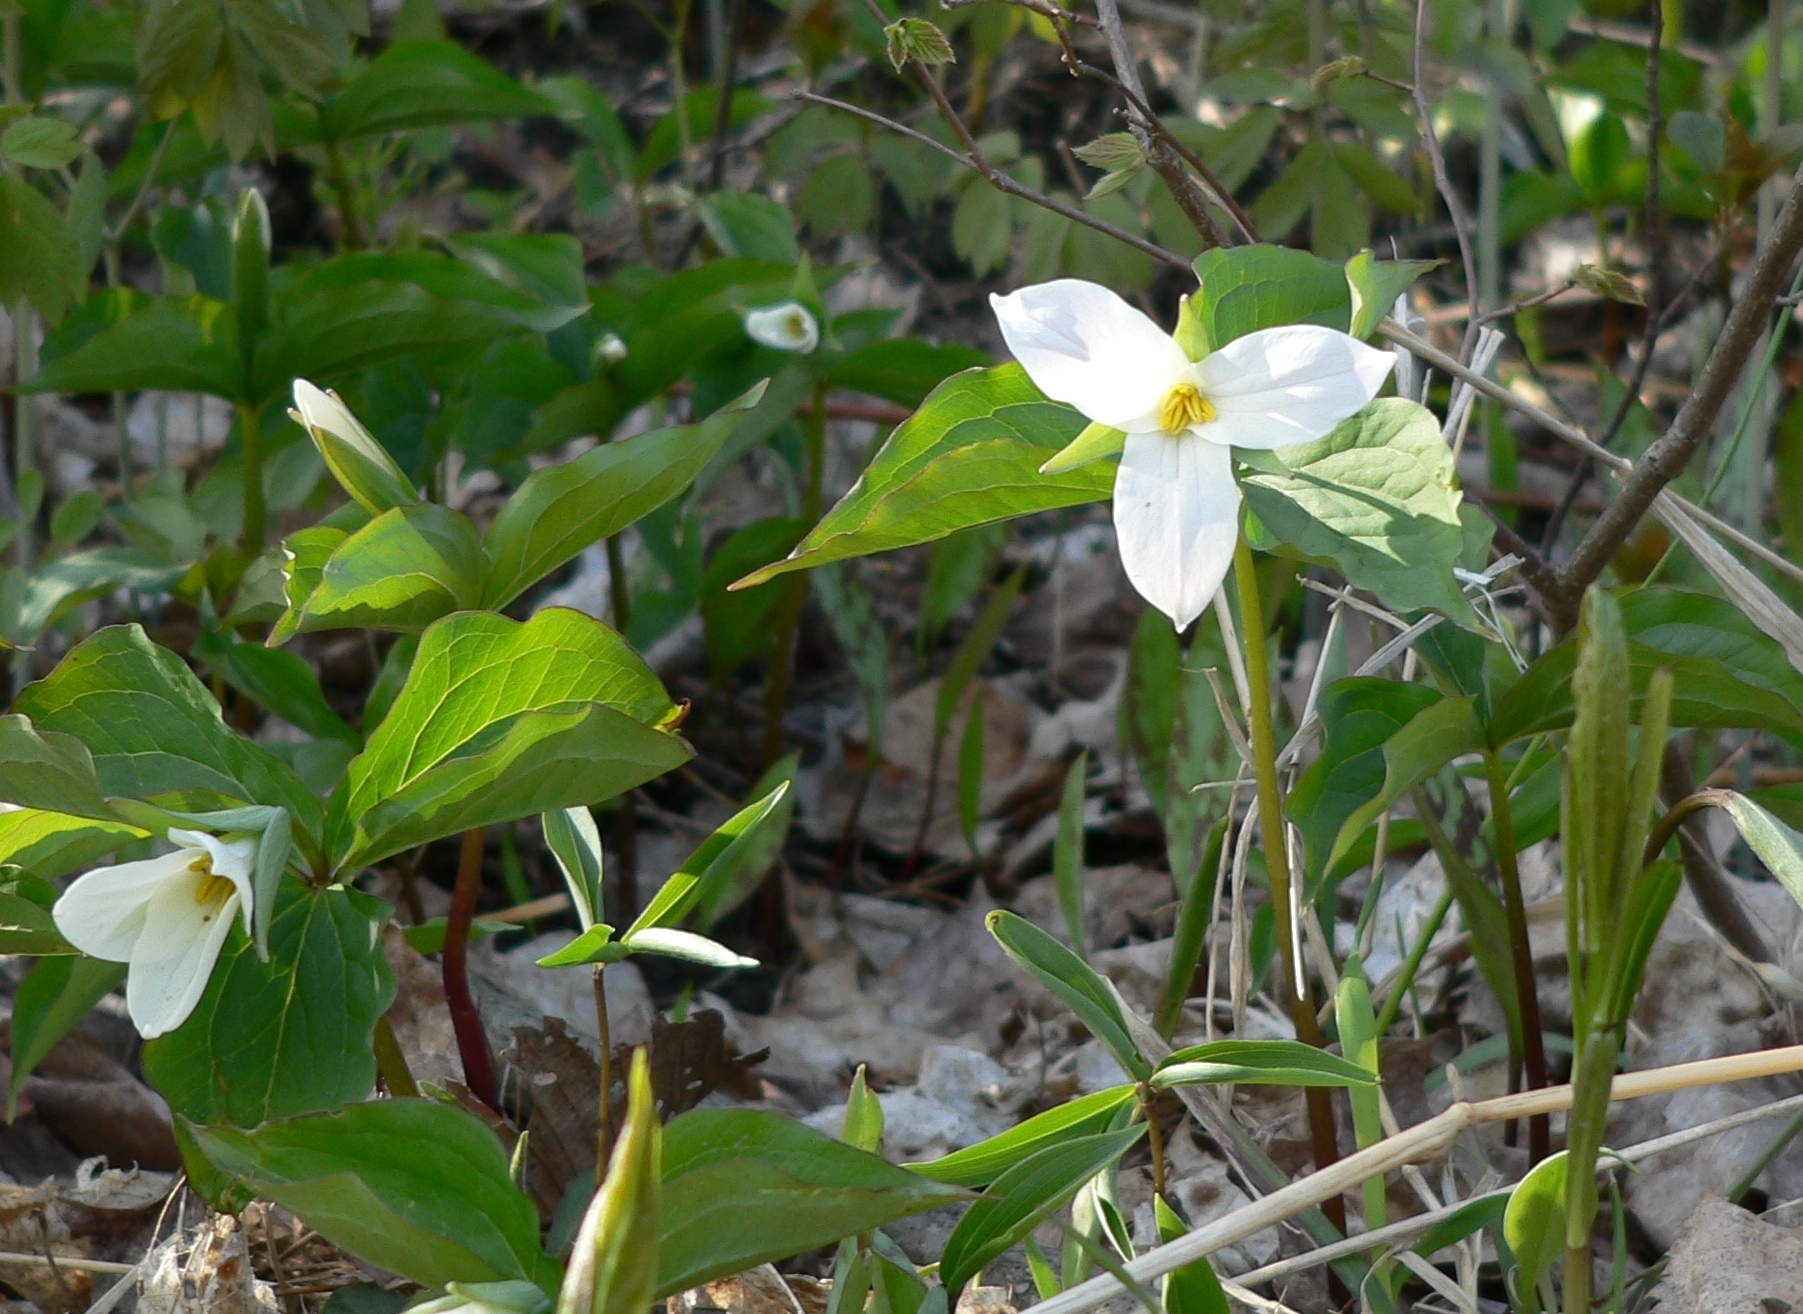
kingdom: Plantae
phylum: Tracheophyta
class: Liliopsida
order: Liliales
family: Melanthiaceae
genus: Trillium
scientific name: Trillium grandiflorum
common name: Great white trillium
